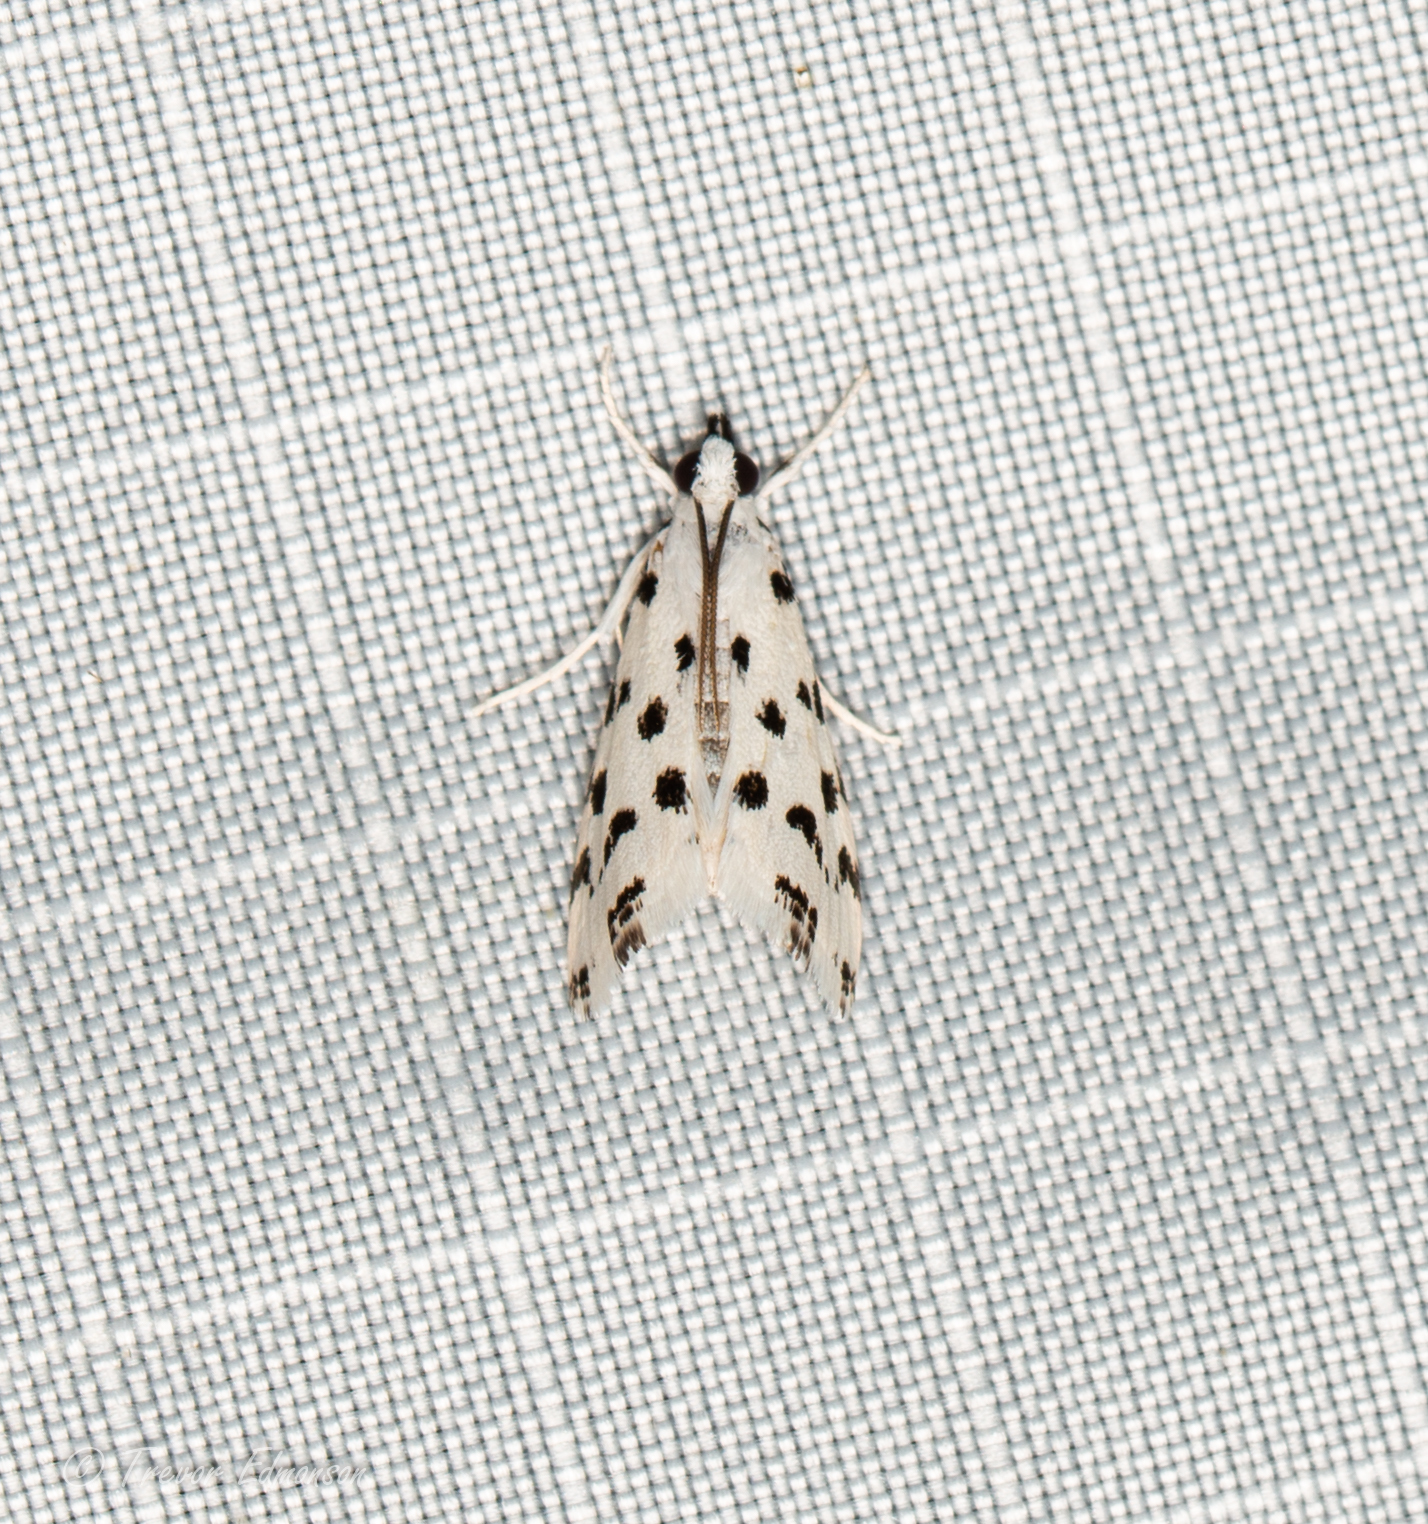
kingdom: Animalia
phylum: Arthropoda
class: Insecta
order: Lepidoptera
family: Crambidae
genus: Eustixia
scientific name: Eustixia pupula
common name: American cabbage pearl
